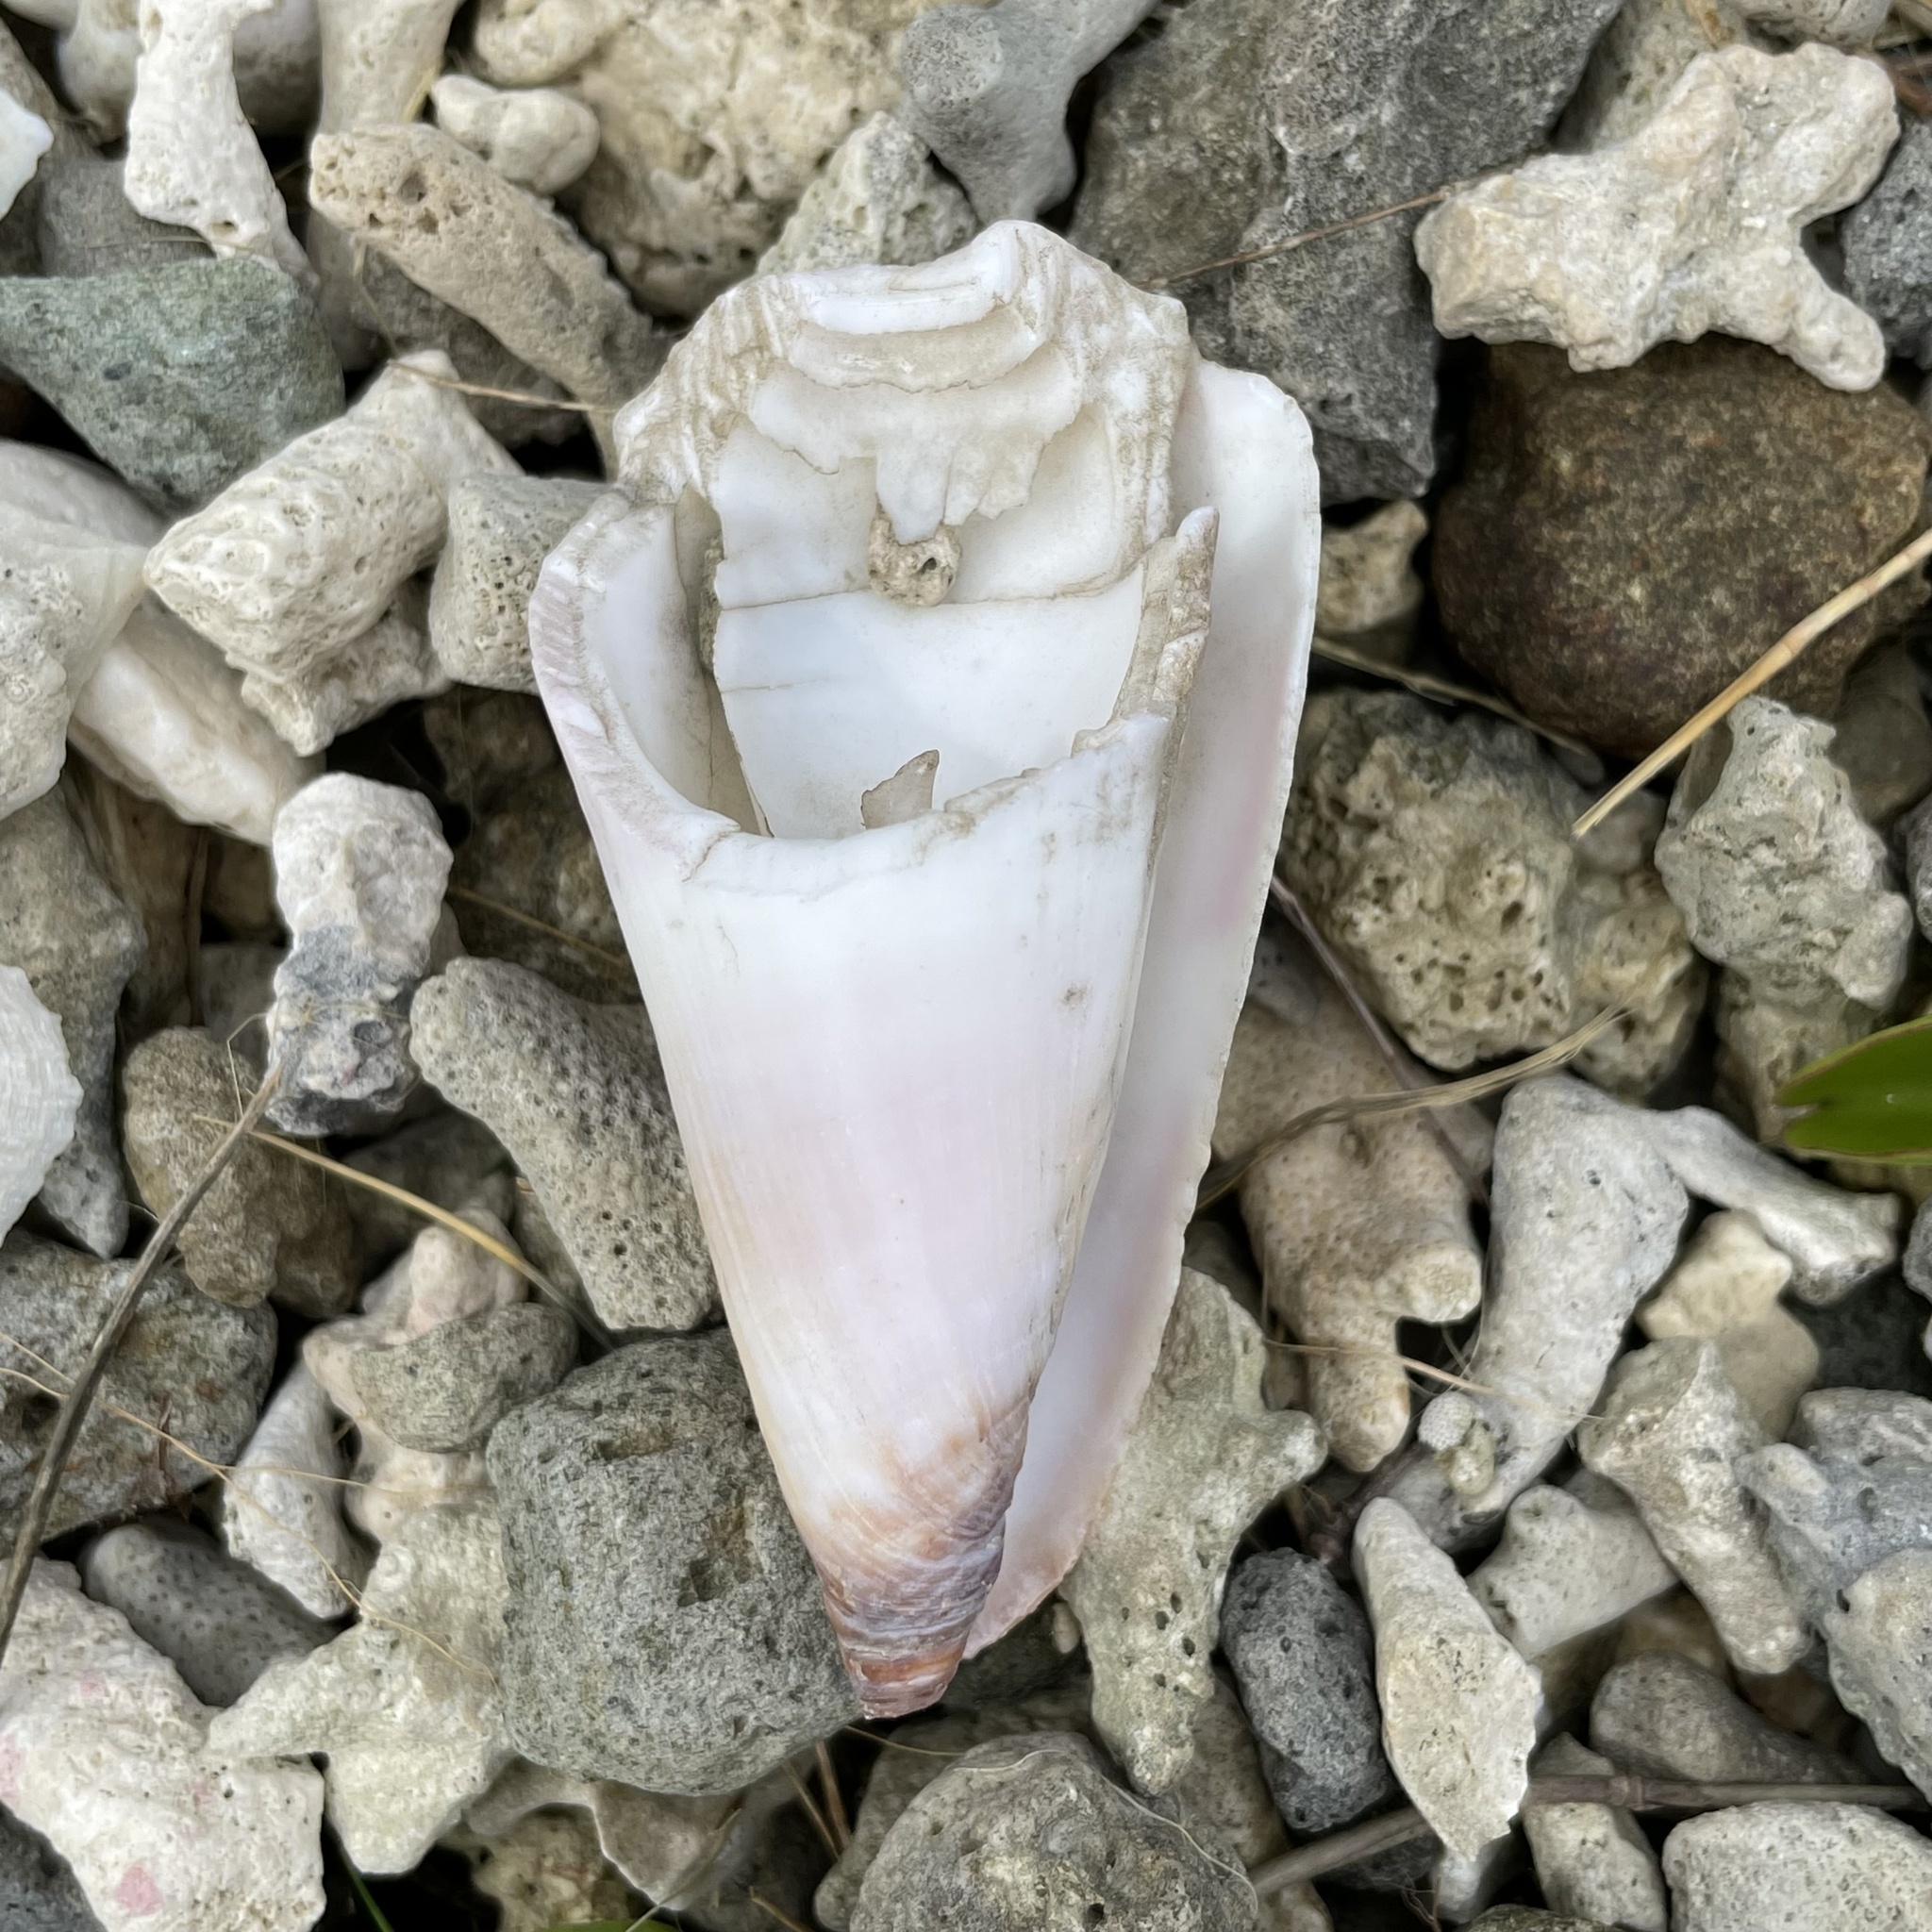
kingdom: Animalia
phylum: Mollusca
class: Gastropoda
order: Neogastropoda
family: Conidae
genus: Conus
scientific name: Conus distans
